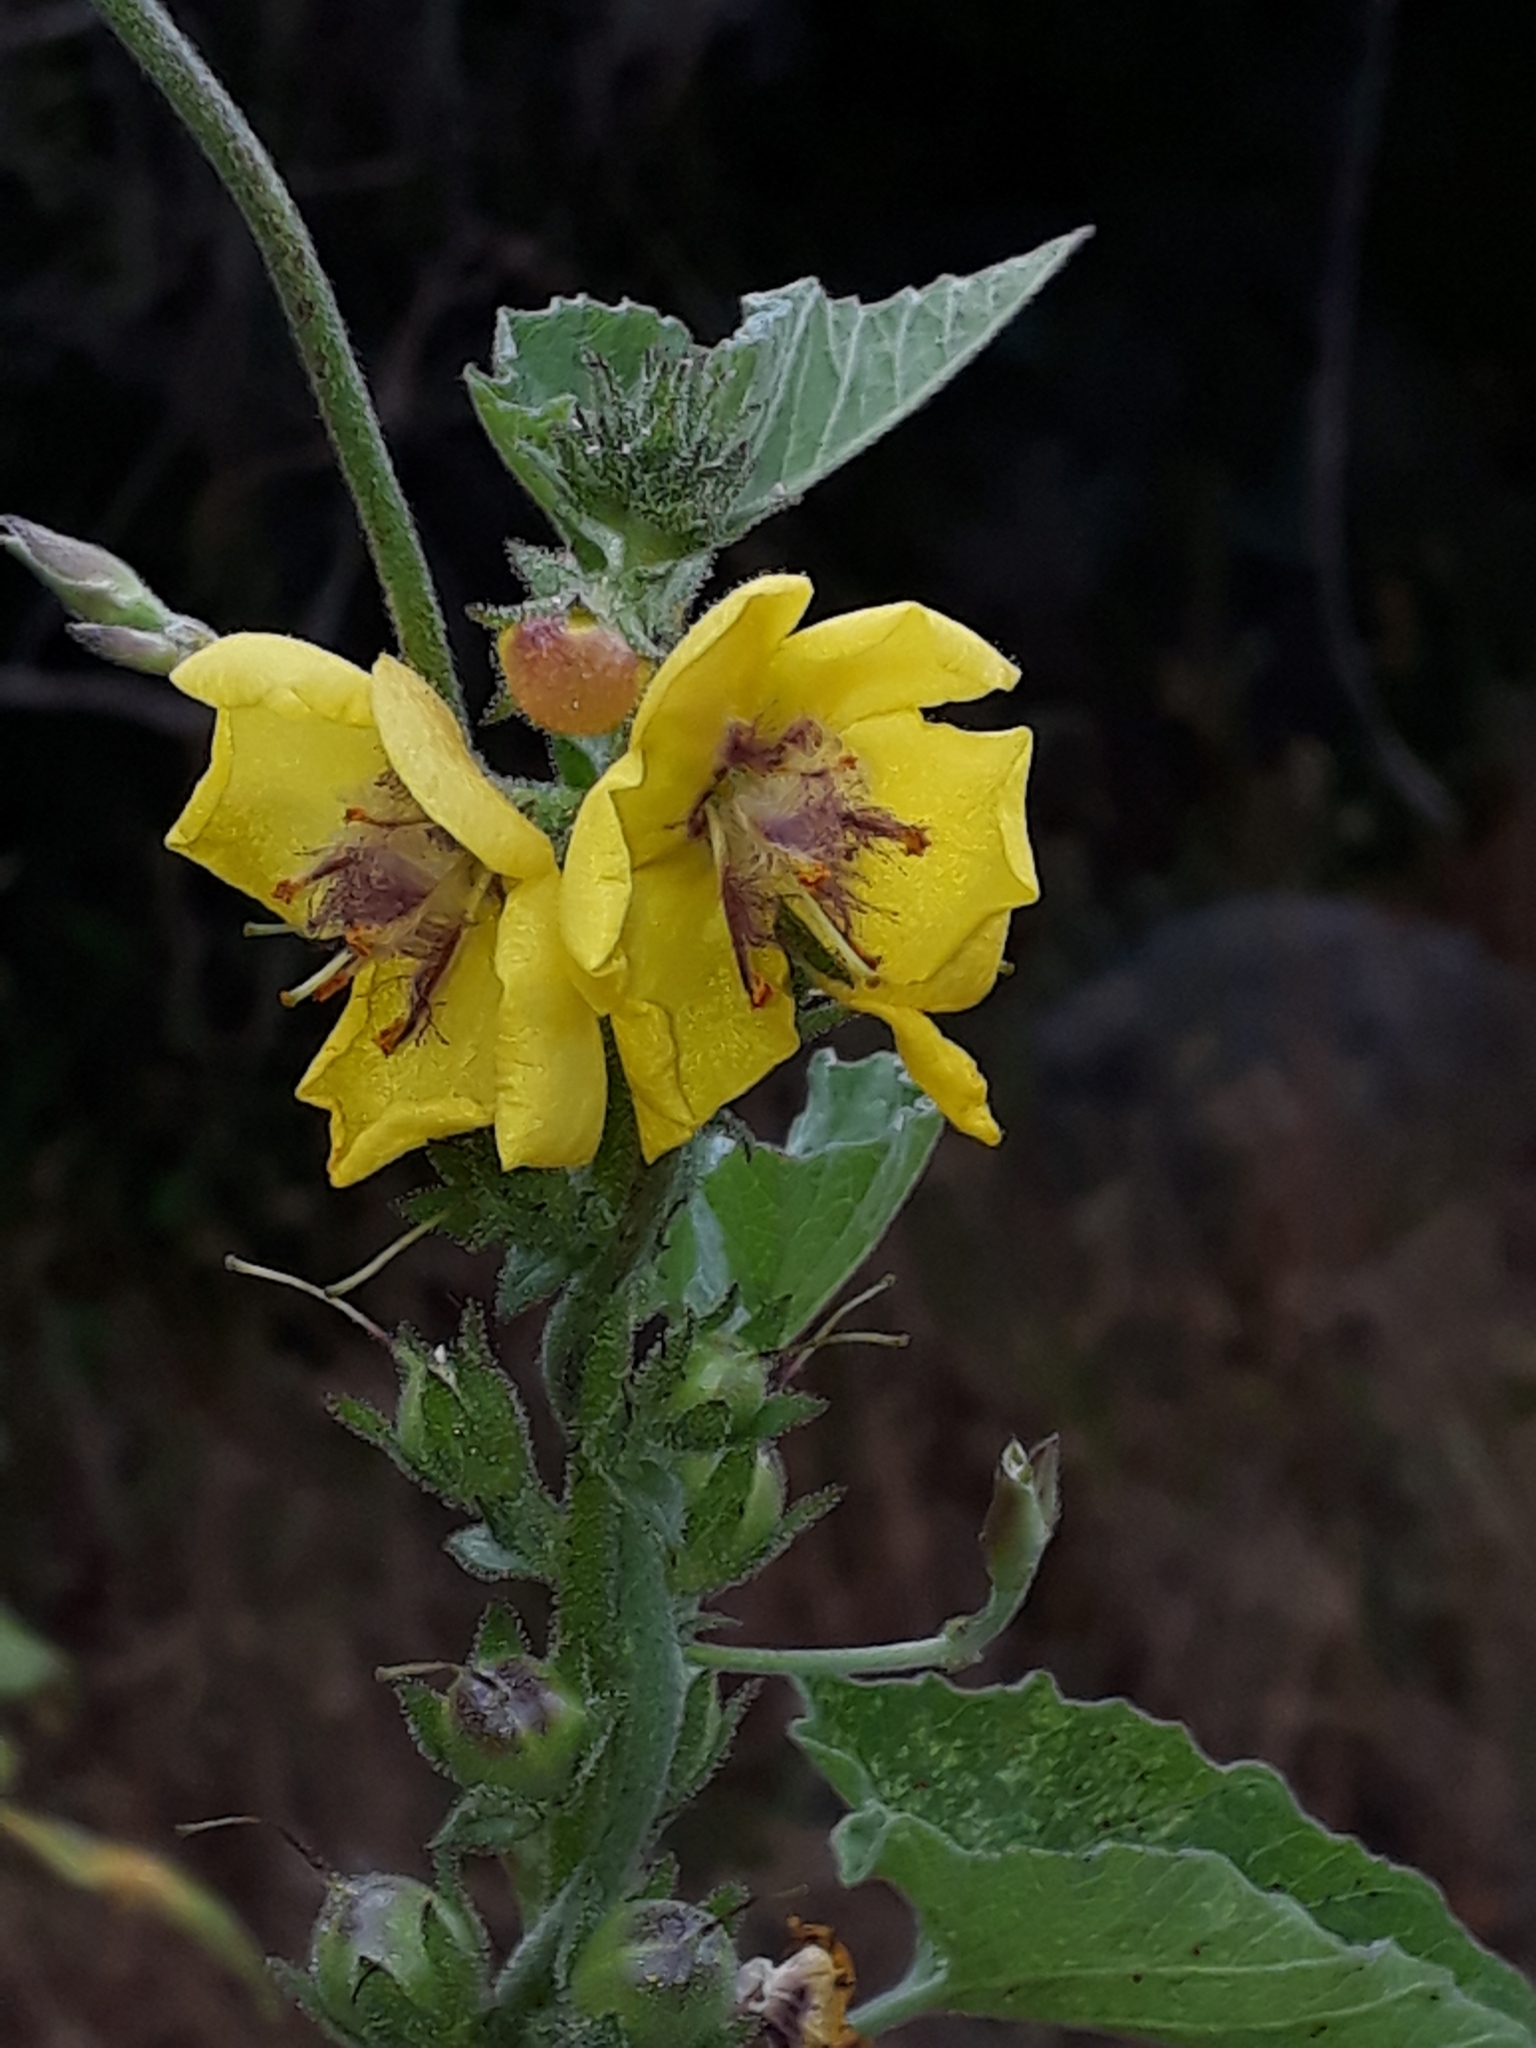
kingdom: Plantae
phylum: Tracheophyta
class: Magnoliopsida
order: Lamiales
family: Scrophulariaceae
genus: Verbascum
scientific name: Verbascum virgatum
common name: Twiggy mullein
